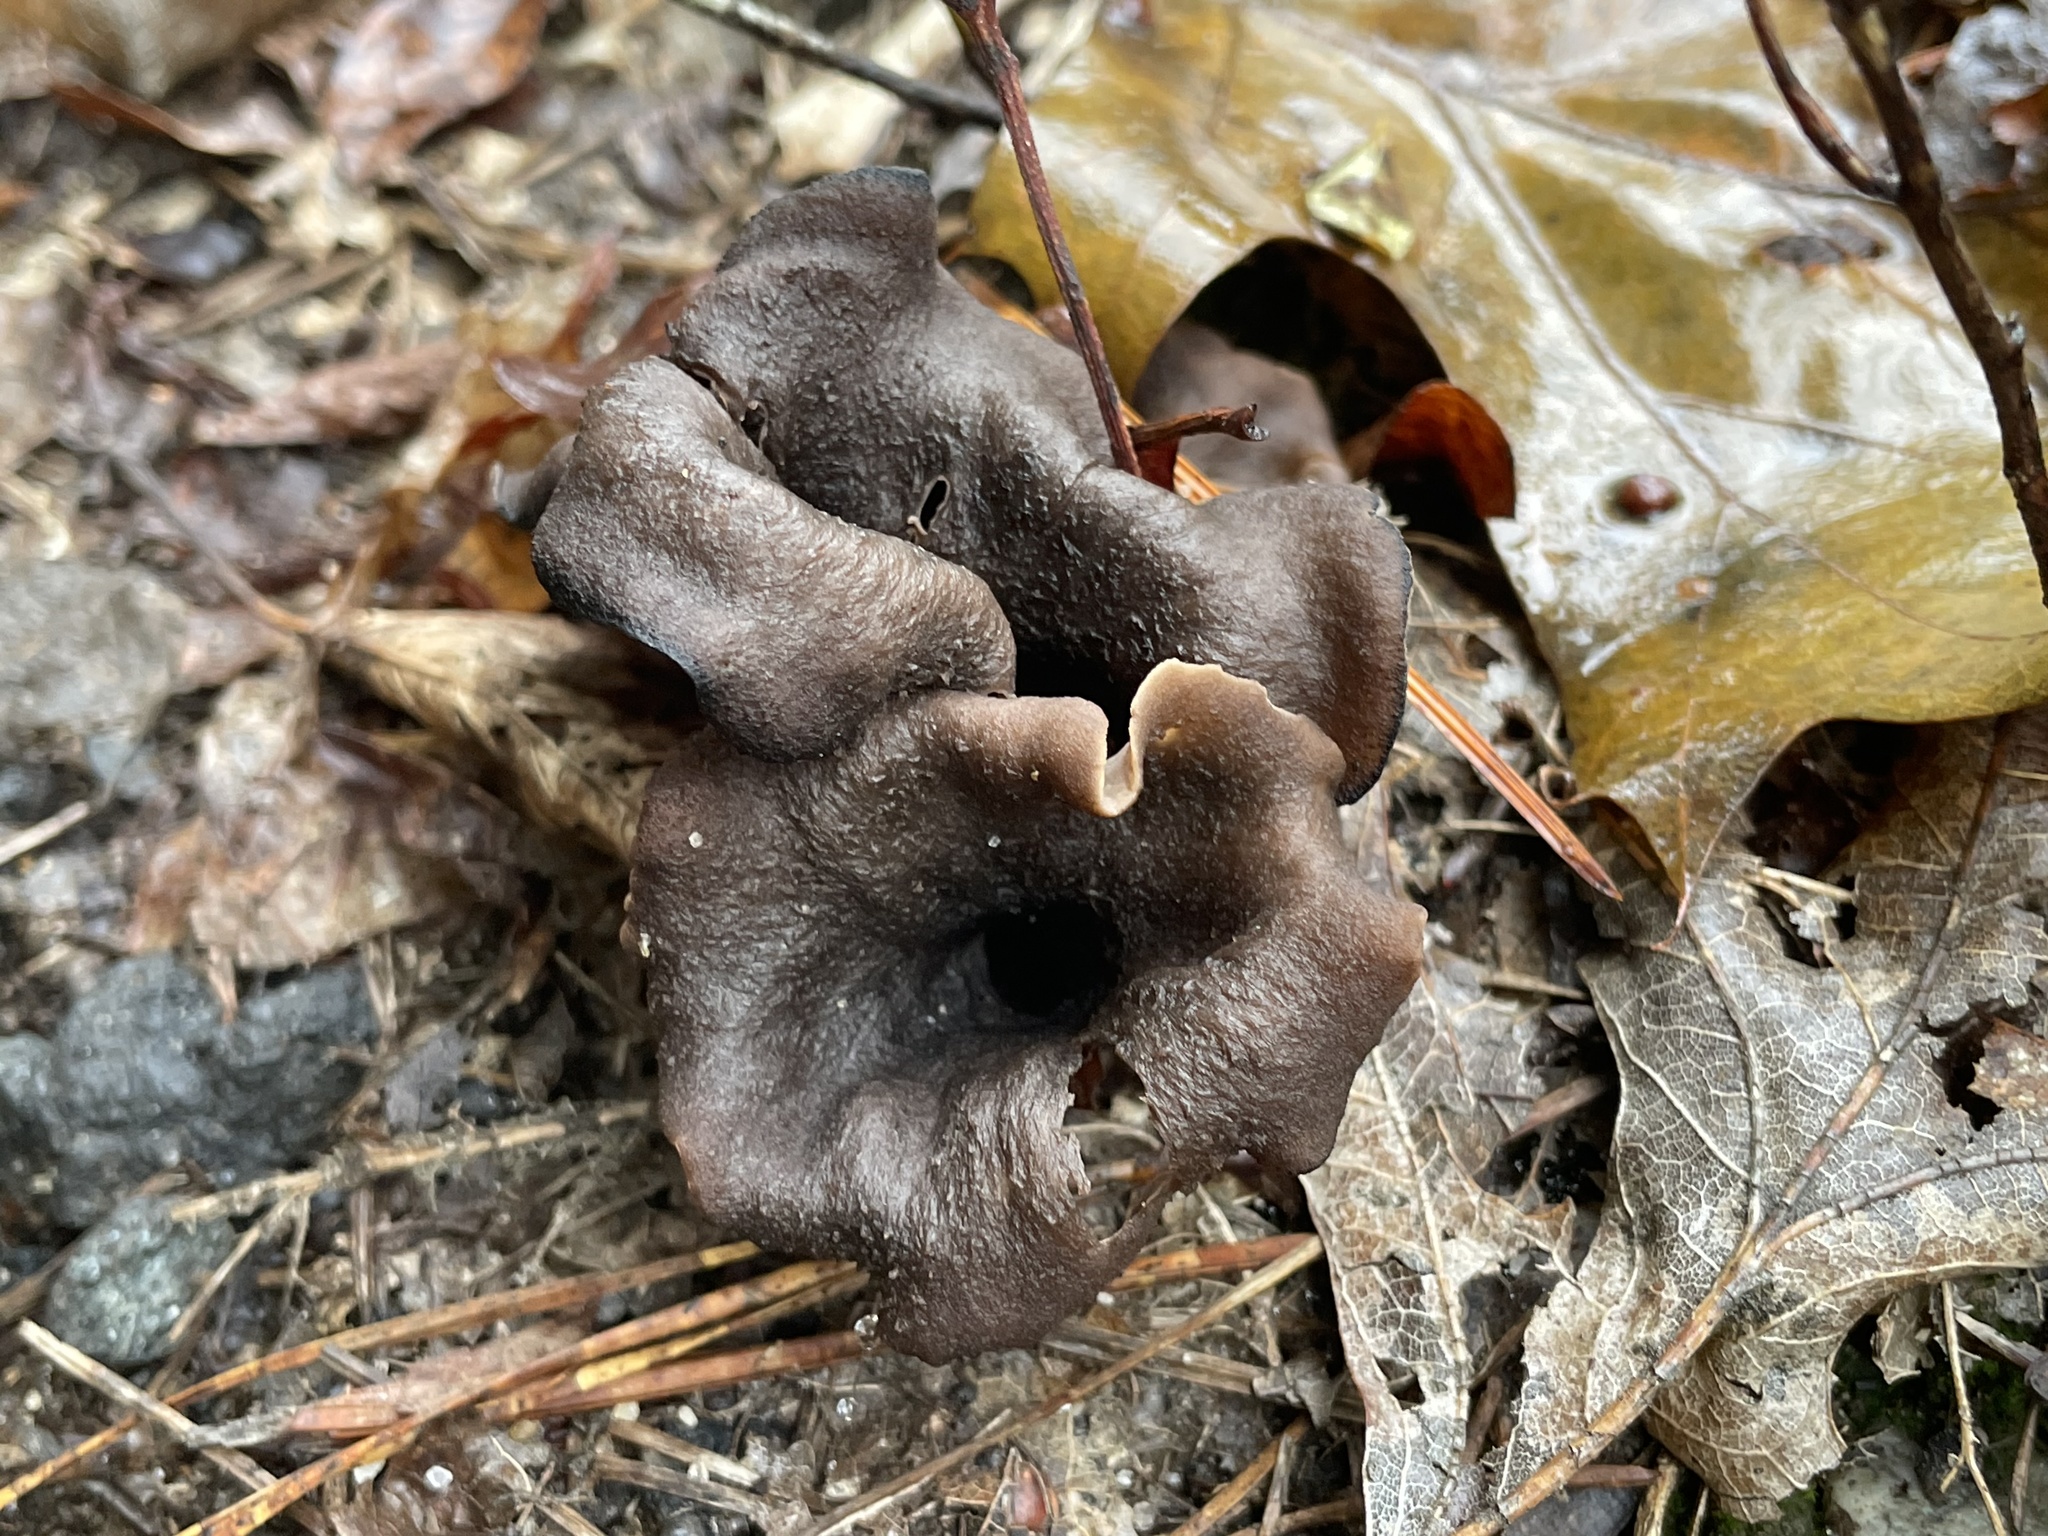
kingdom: Fungi
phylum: Basidiomycota
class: Agaricomycetes
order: Cantharellales
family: Hydnaceae
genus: Craterellus
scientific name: Craterellus cornucopioides
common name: Horn of plenty
